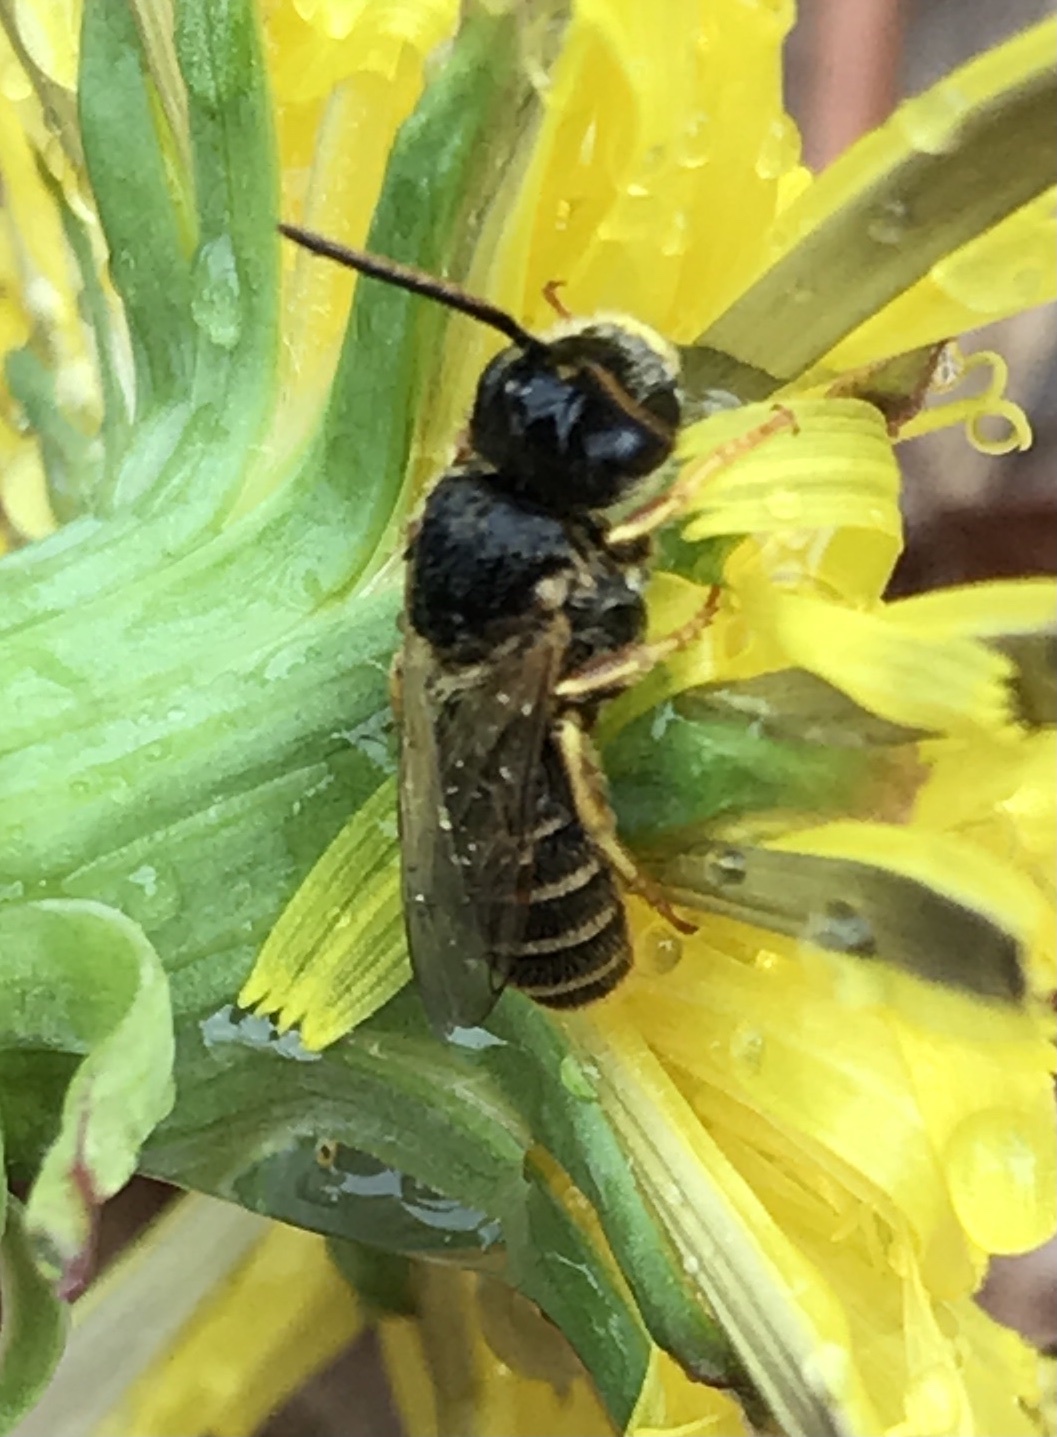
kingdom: Animalia
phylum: Arthropoda
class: Insecta
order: Hymenoptera
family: Halictidae
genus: Halictus
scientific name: Halictus ligatus
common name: Ligated furrow bee
